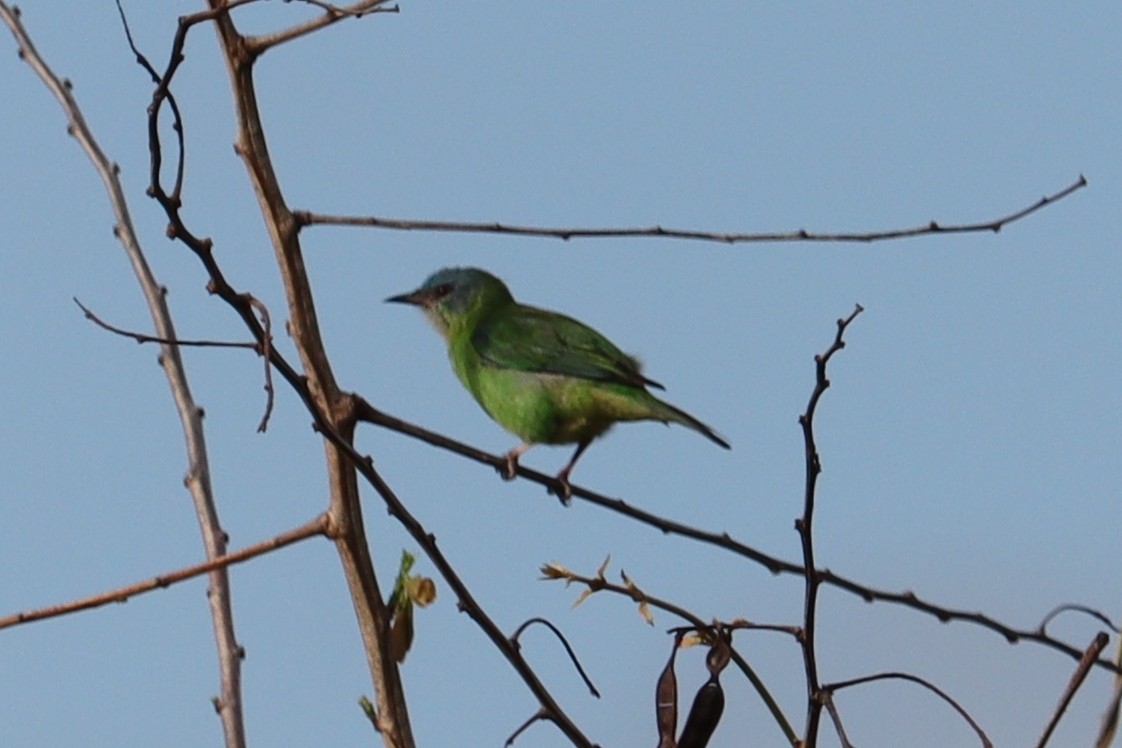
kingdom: Animalia
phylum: Chordata
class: Aves
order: Passeriformes
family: Thraupidae
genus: Dacnis
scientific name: Dacnis cayana
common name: Blue dacnis
